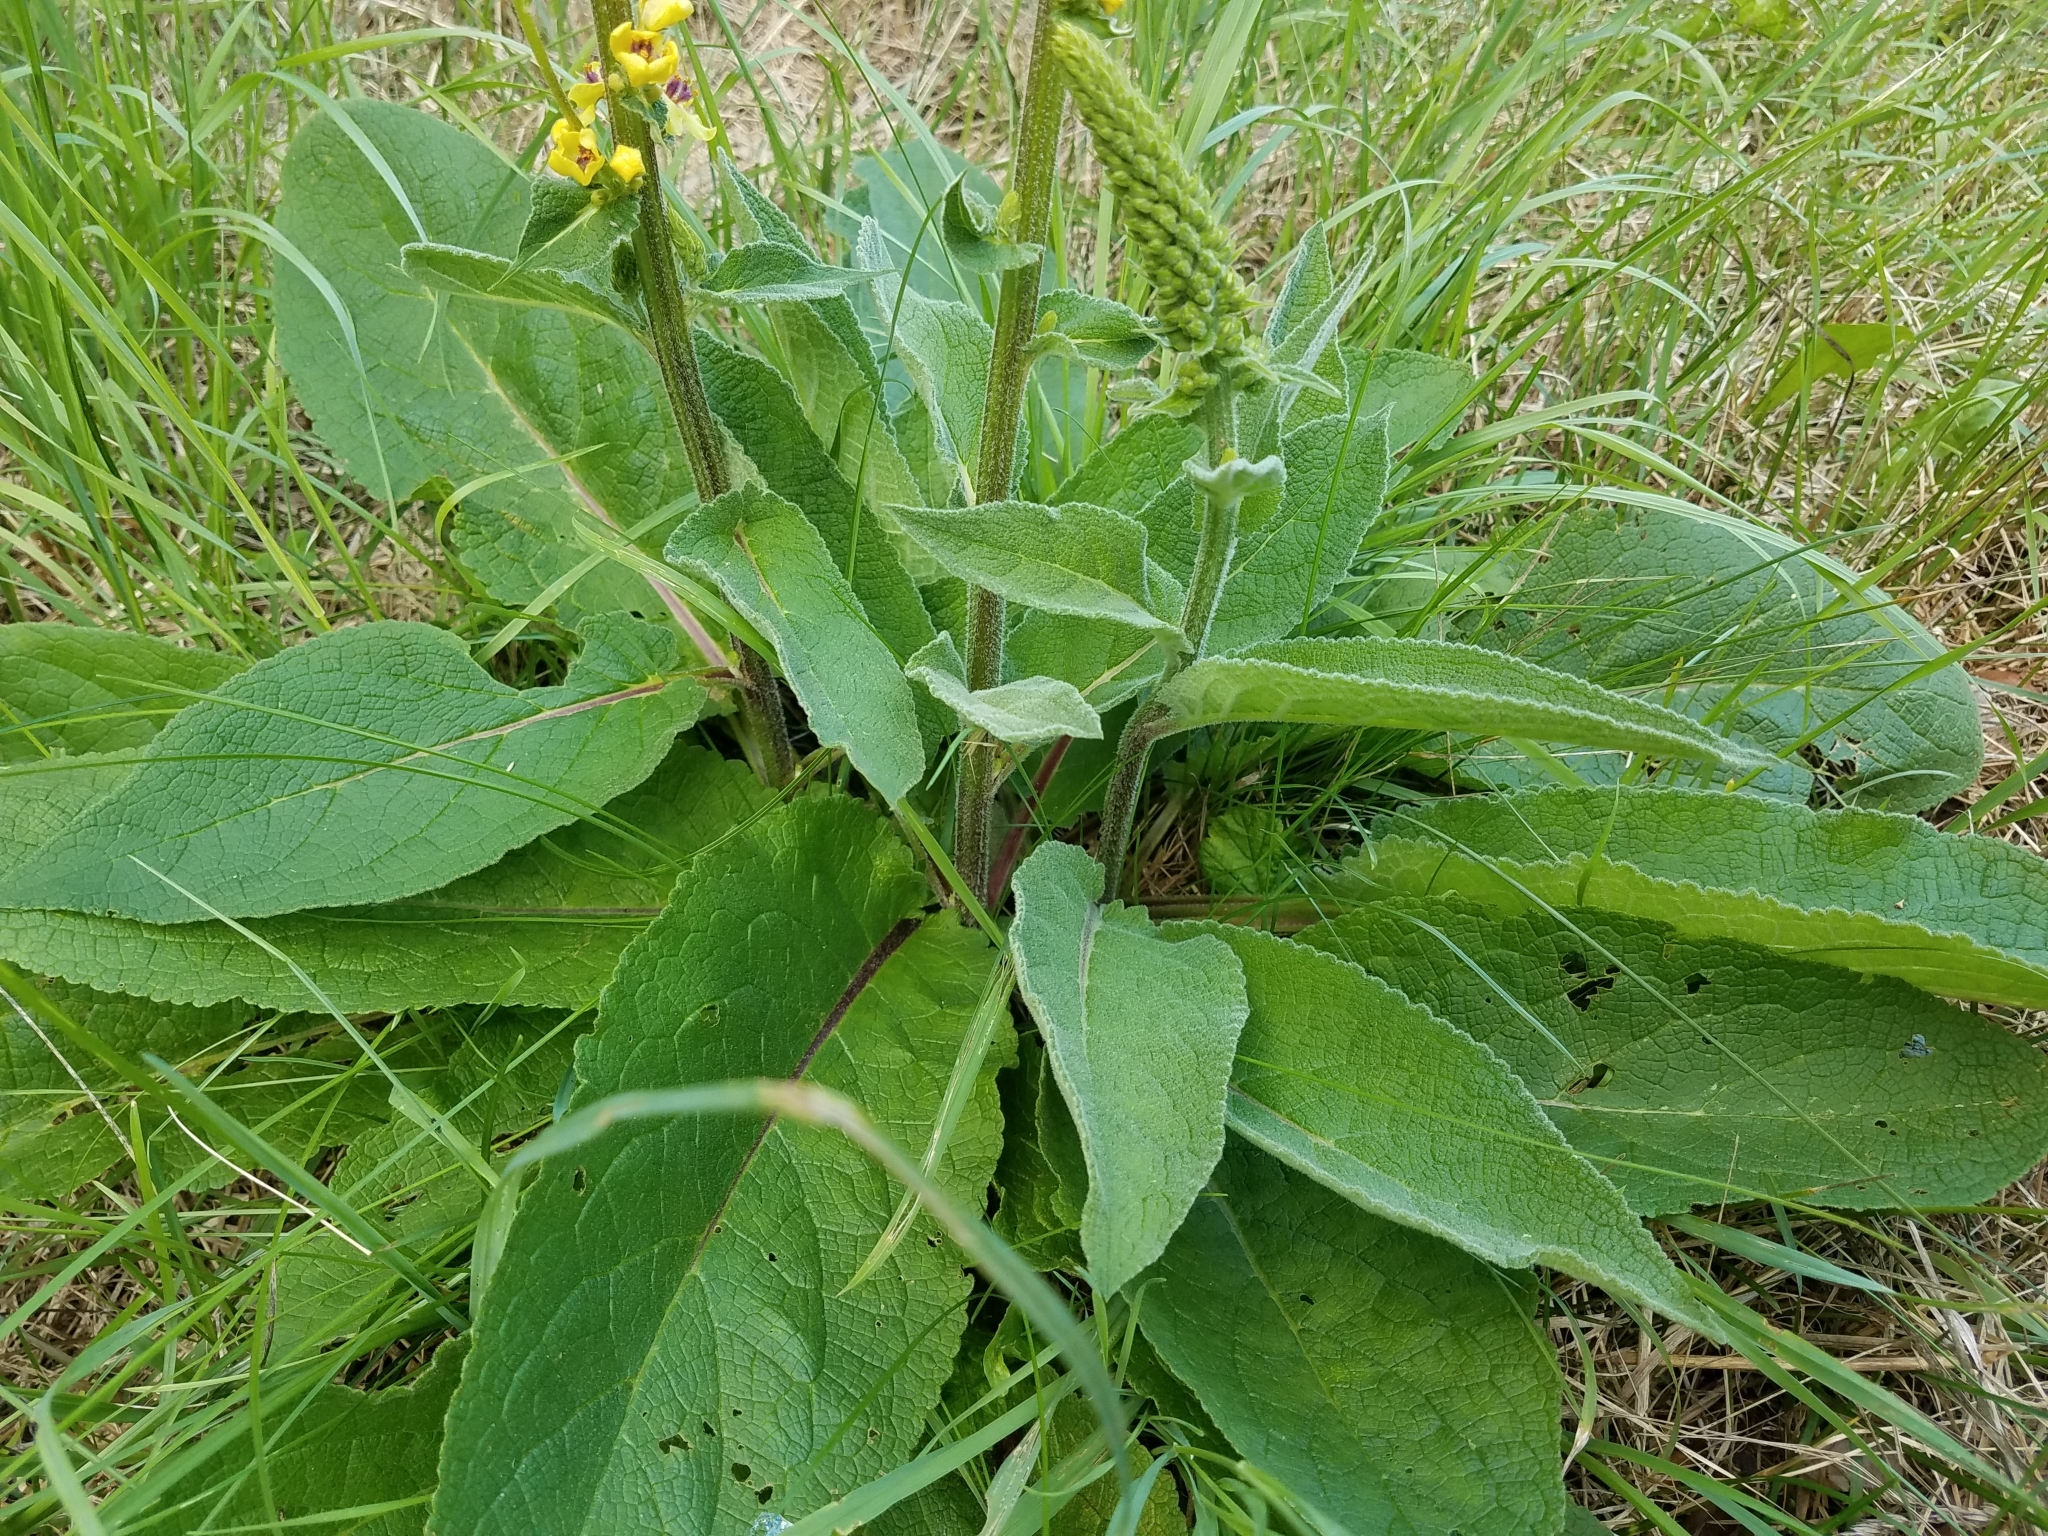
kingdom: Plantae
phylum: Tracheophyta
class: Magnoliopsida
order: Lamiales
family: Scrophulariaceae
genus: Verbascum
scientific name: Verbascum nigrum
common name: Dark mullein
